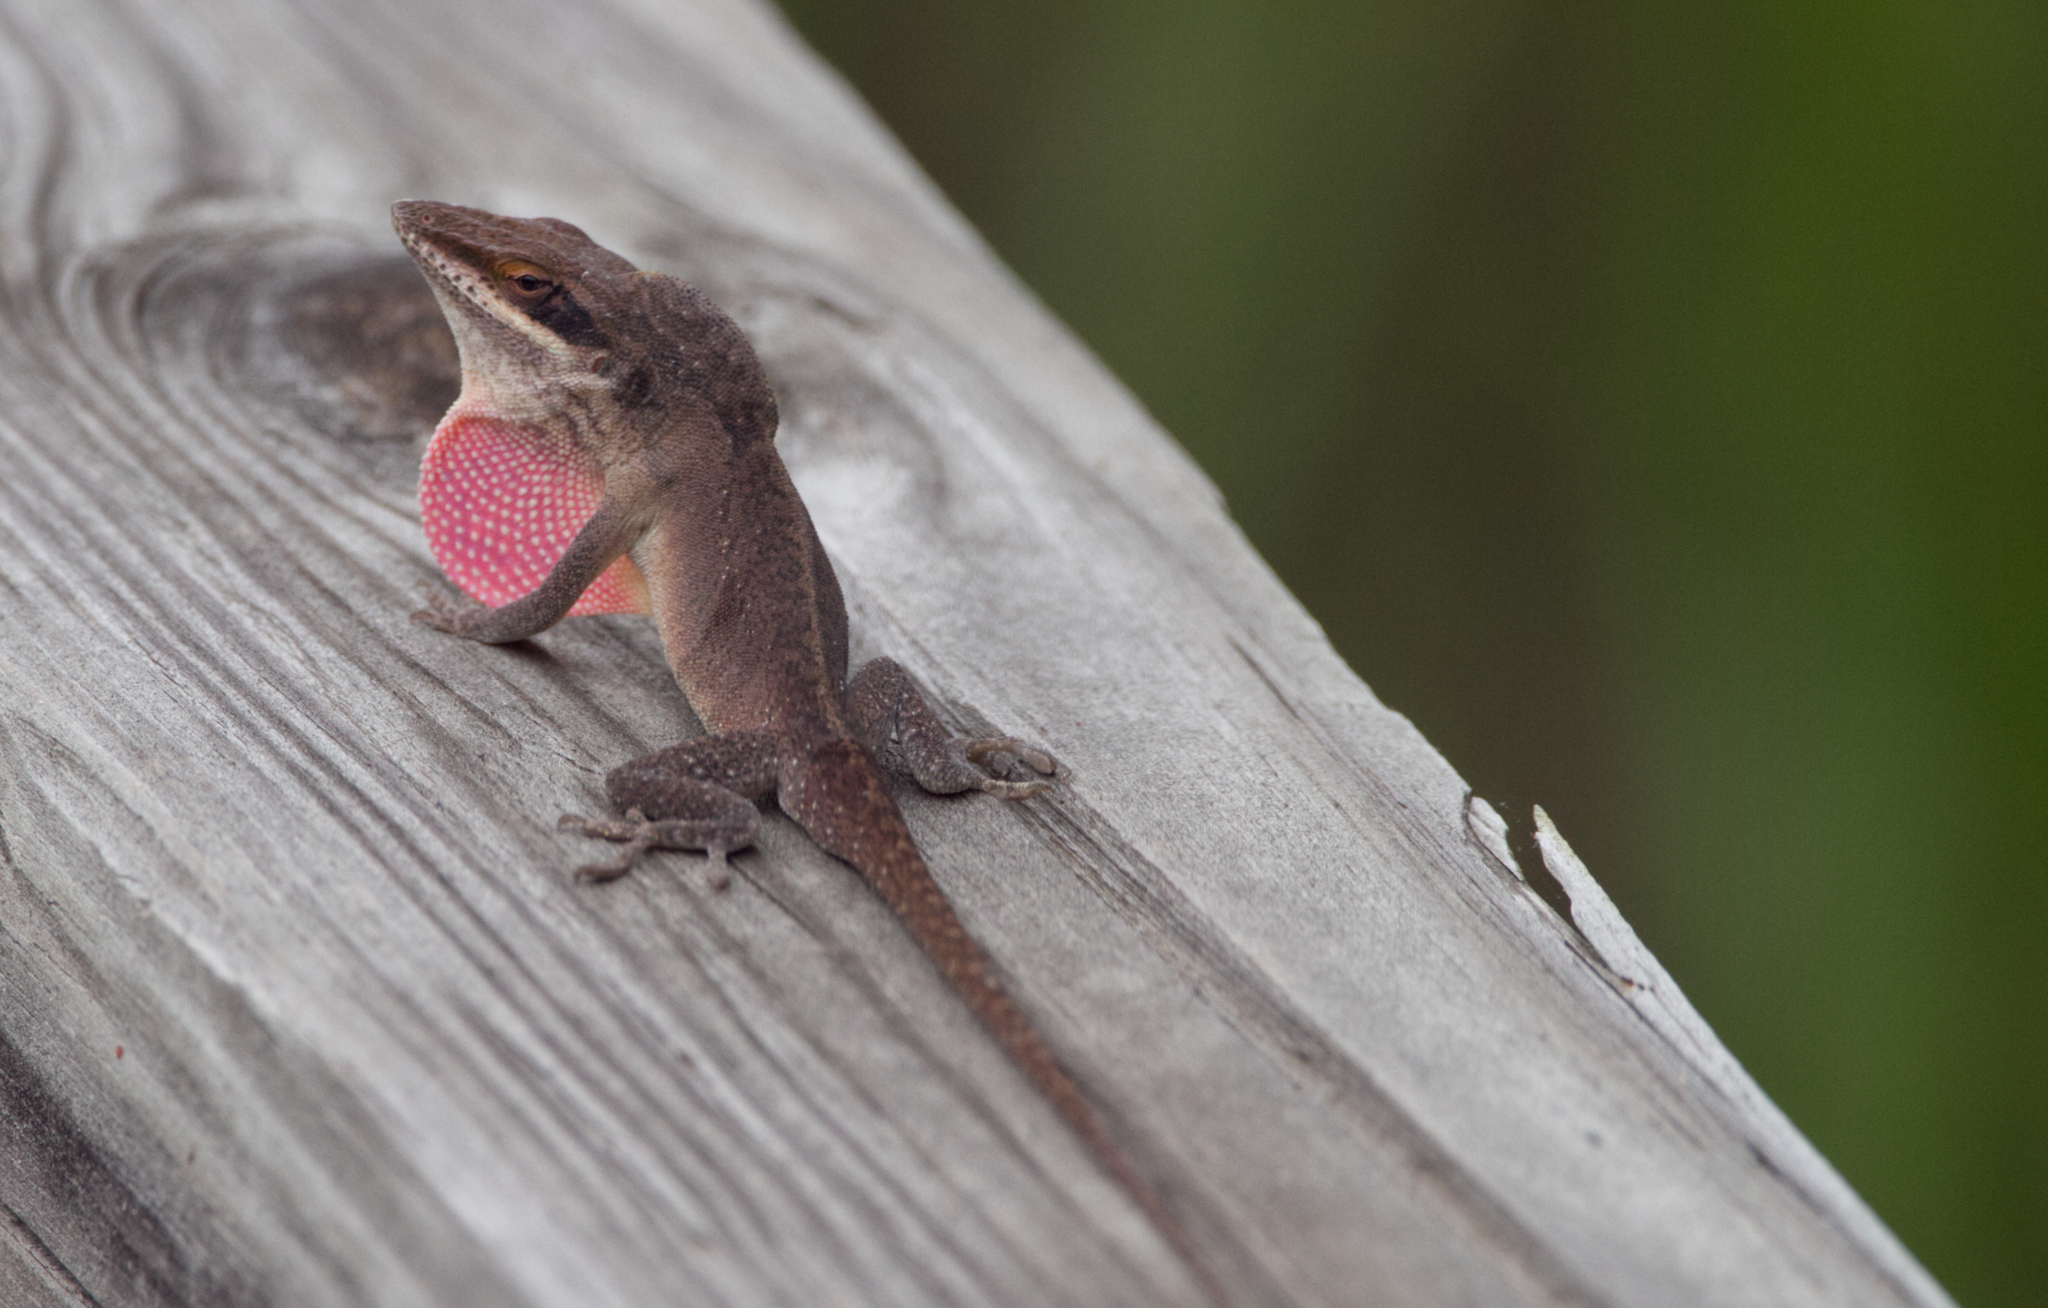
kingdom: Animalia
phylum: Chordata
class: Squamata
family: Dactyloidae
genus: Anolis
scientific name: Anolis carolinensis
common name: Green anole
